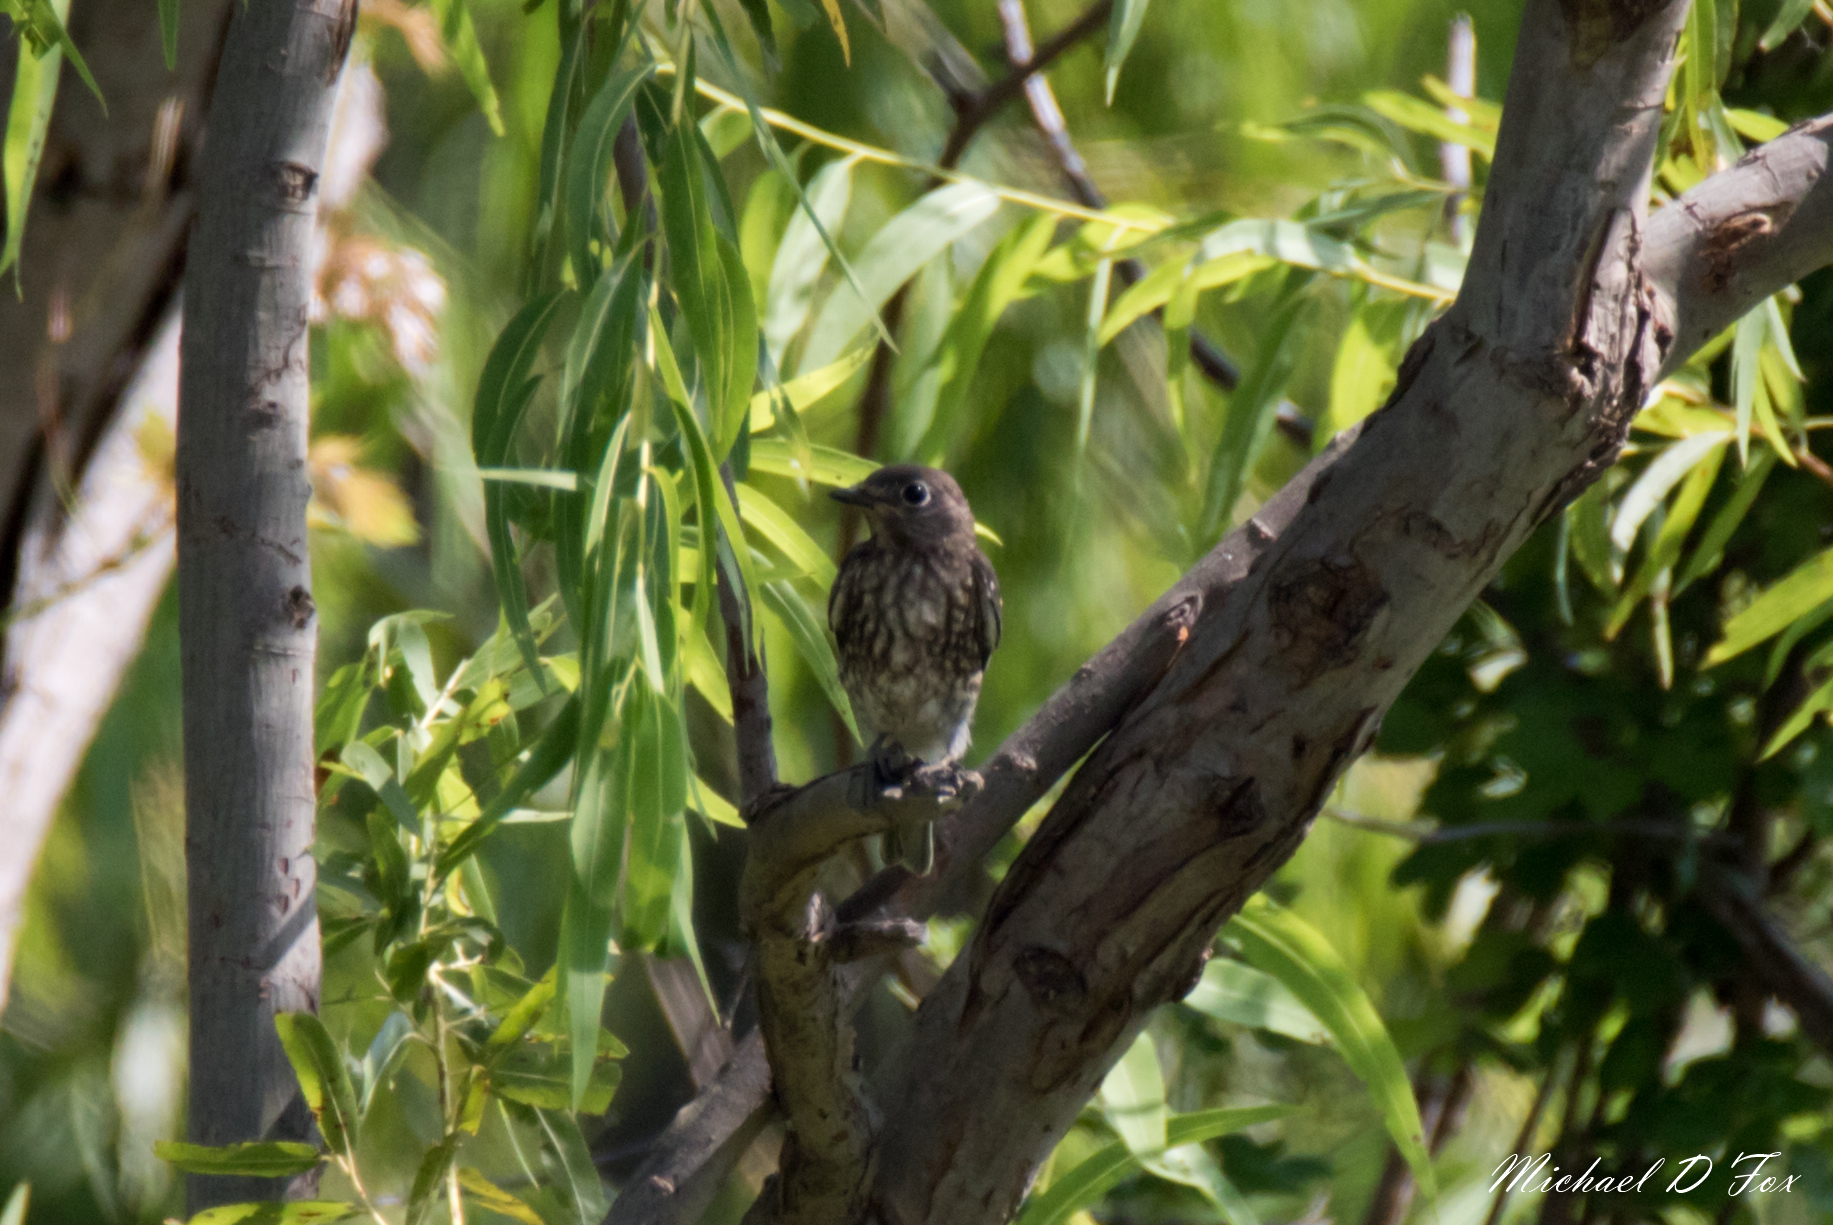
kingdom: Animalia
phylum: Chordata
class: Aves
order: Passeriformes
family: Turdidae
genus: Sialia
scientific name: Sialia sialis
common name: Eastern bluebird
